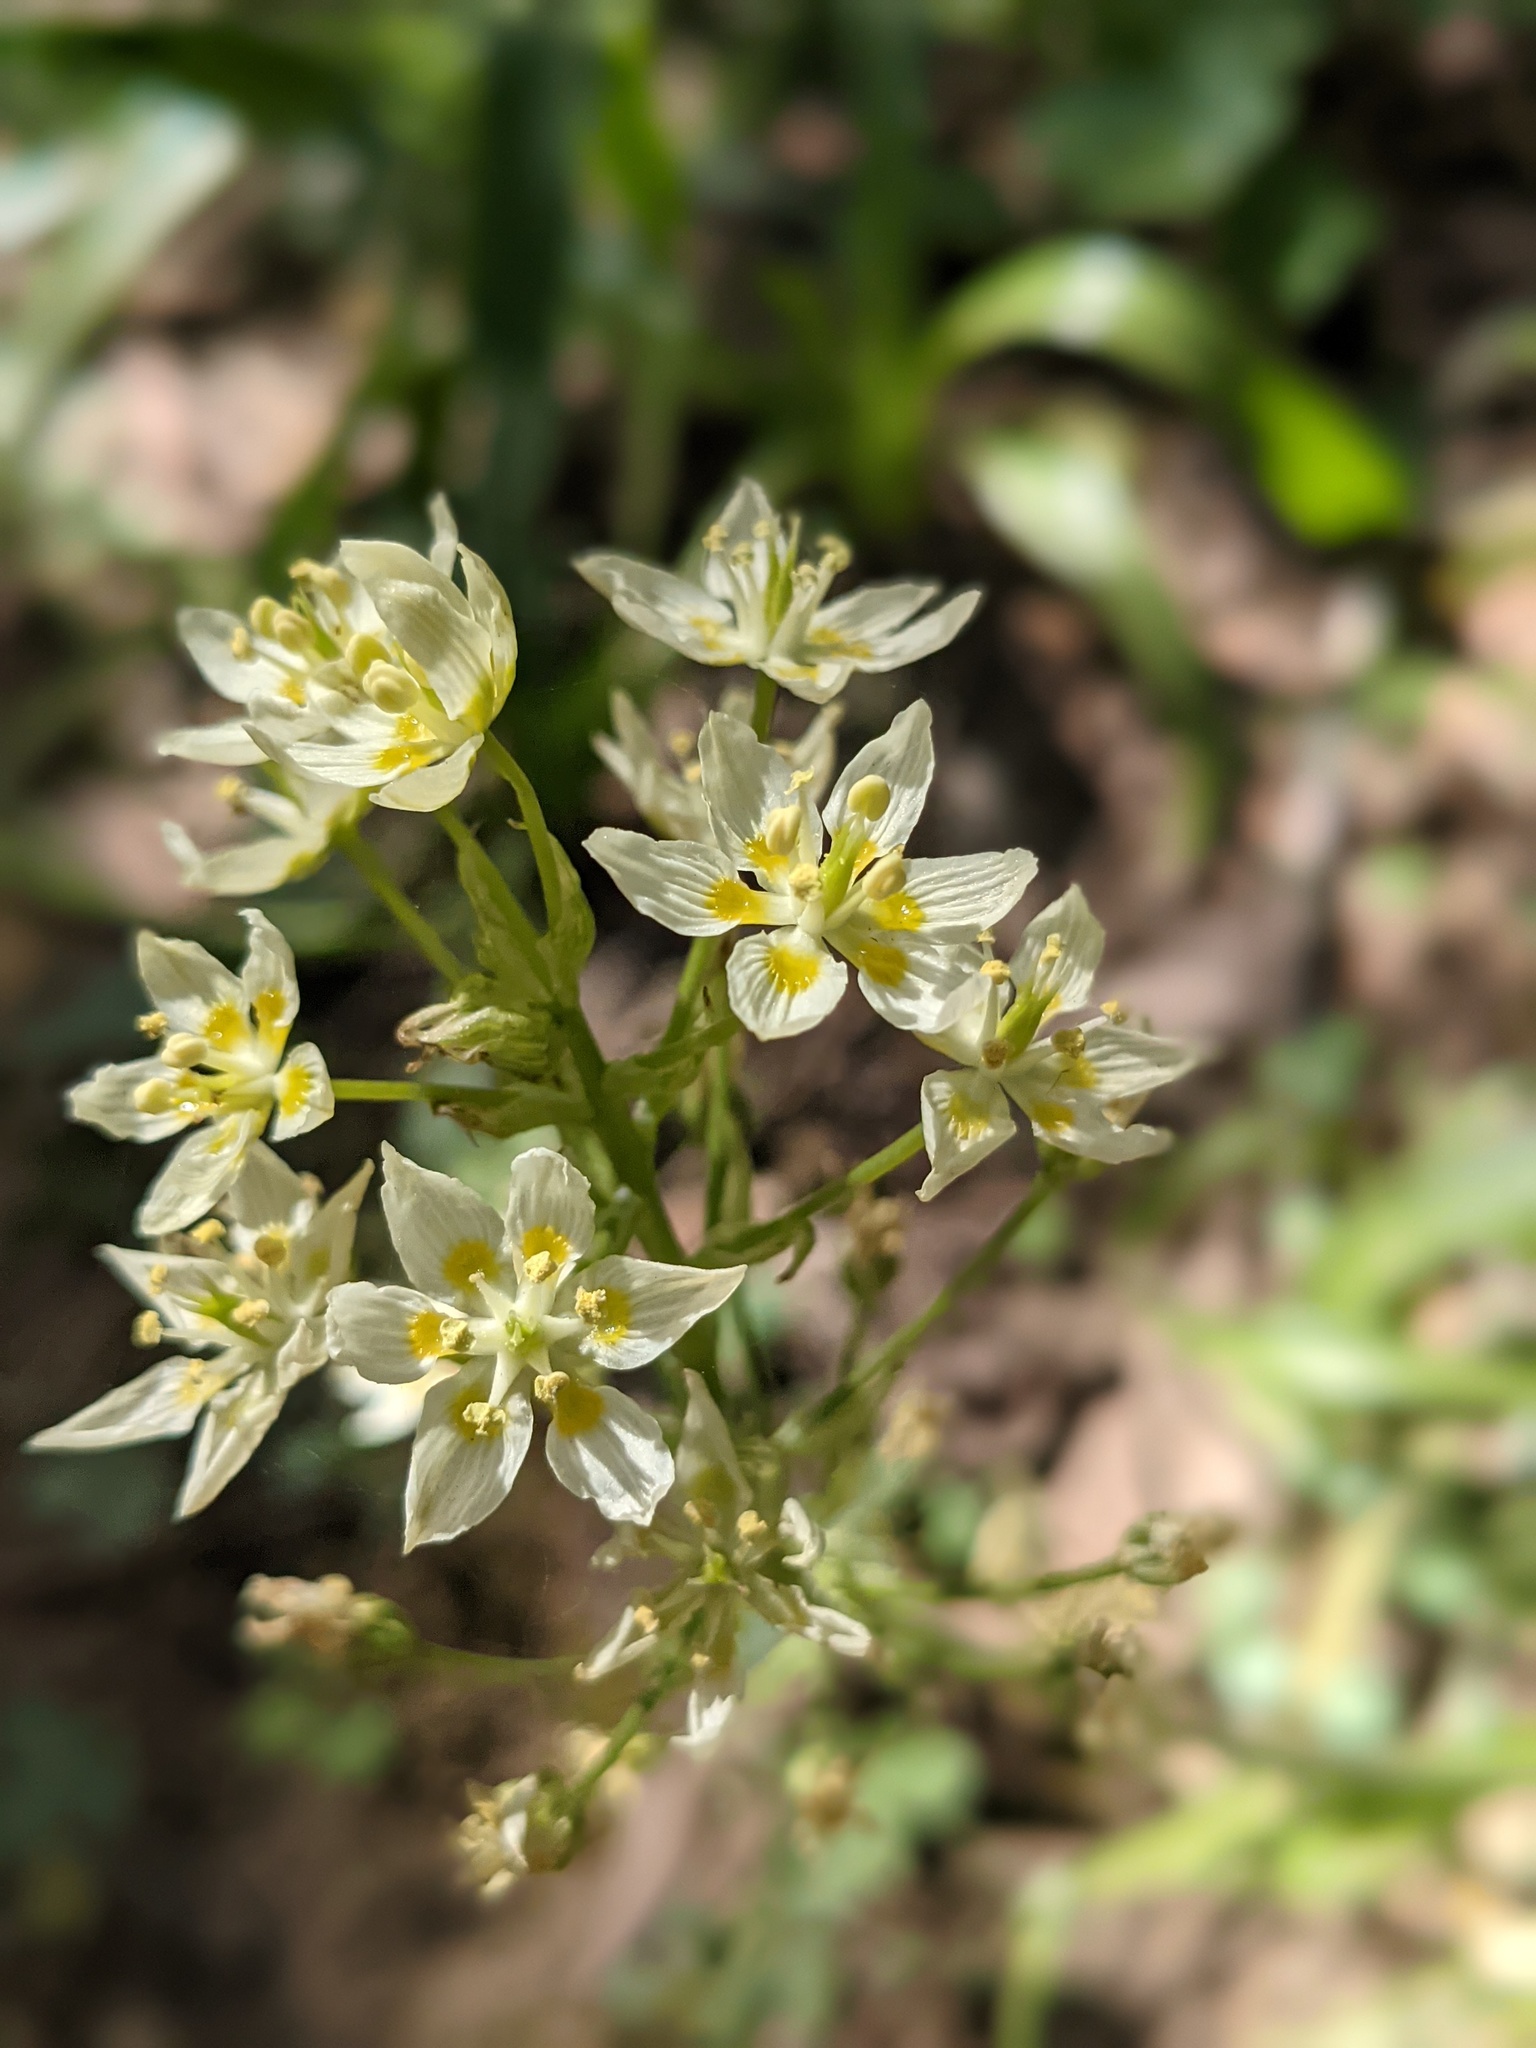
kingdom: Plantae
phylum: Tracheophyta
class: Liliopsida
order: Liliales
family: Melanthiaceae
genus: Toxicoscordion
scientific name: Toxicoscordion fremontii
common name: Fremont's death camas
